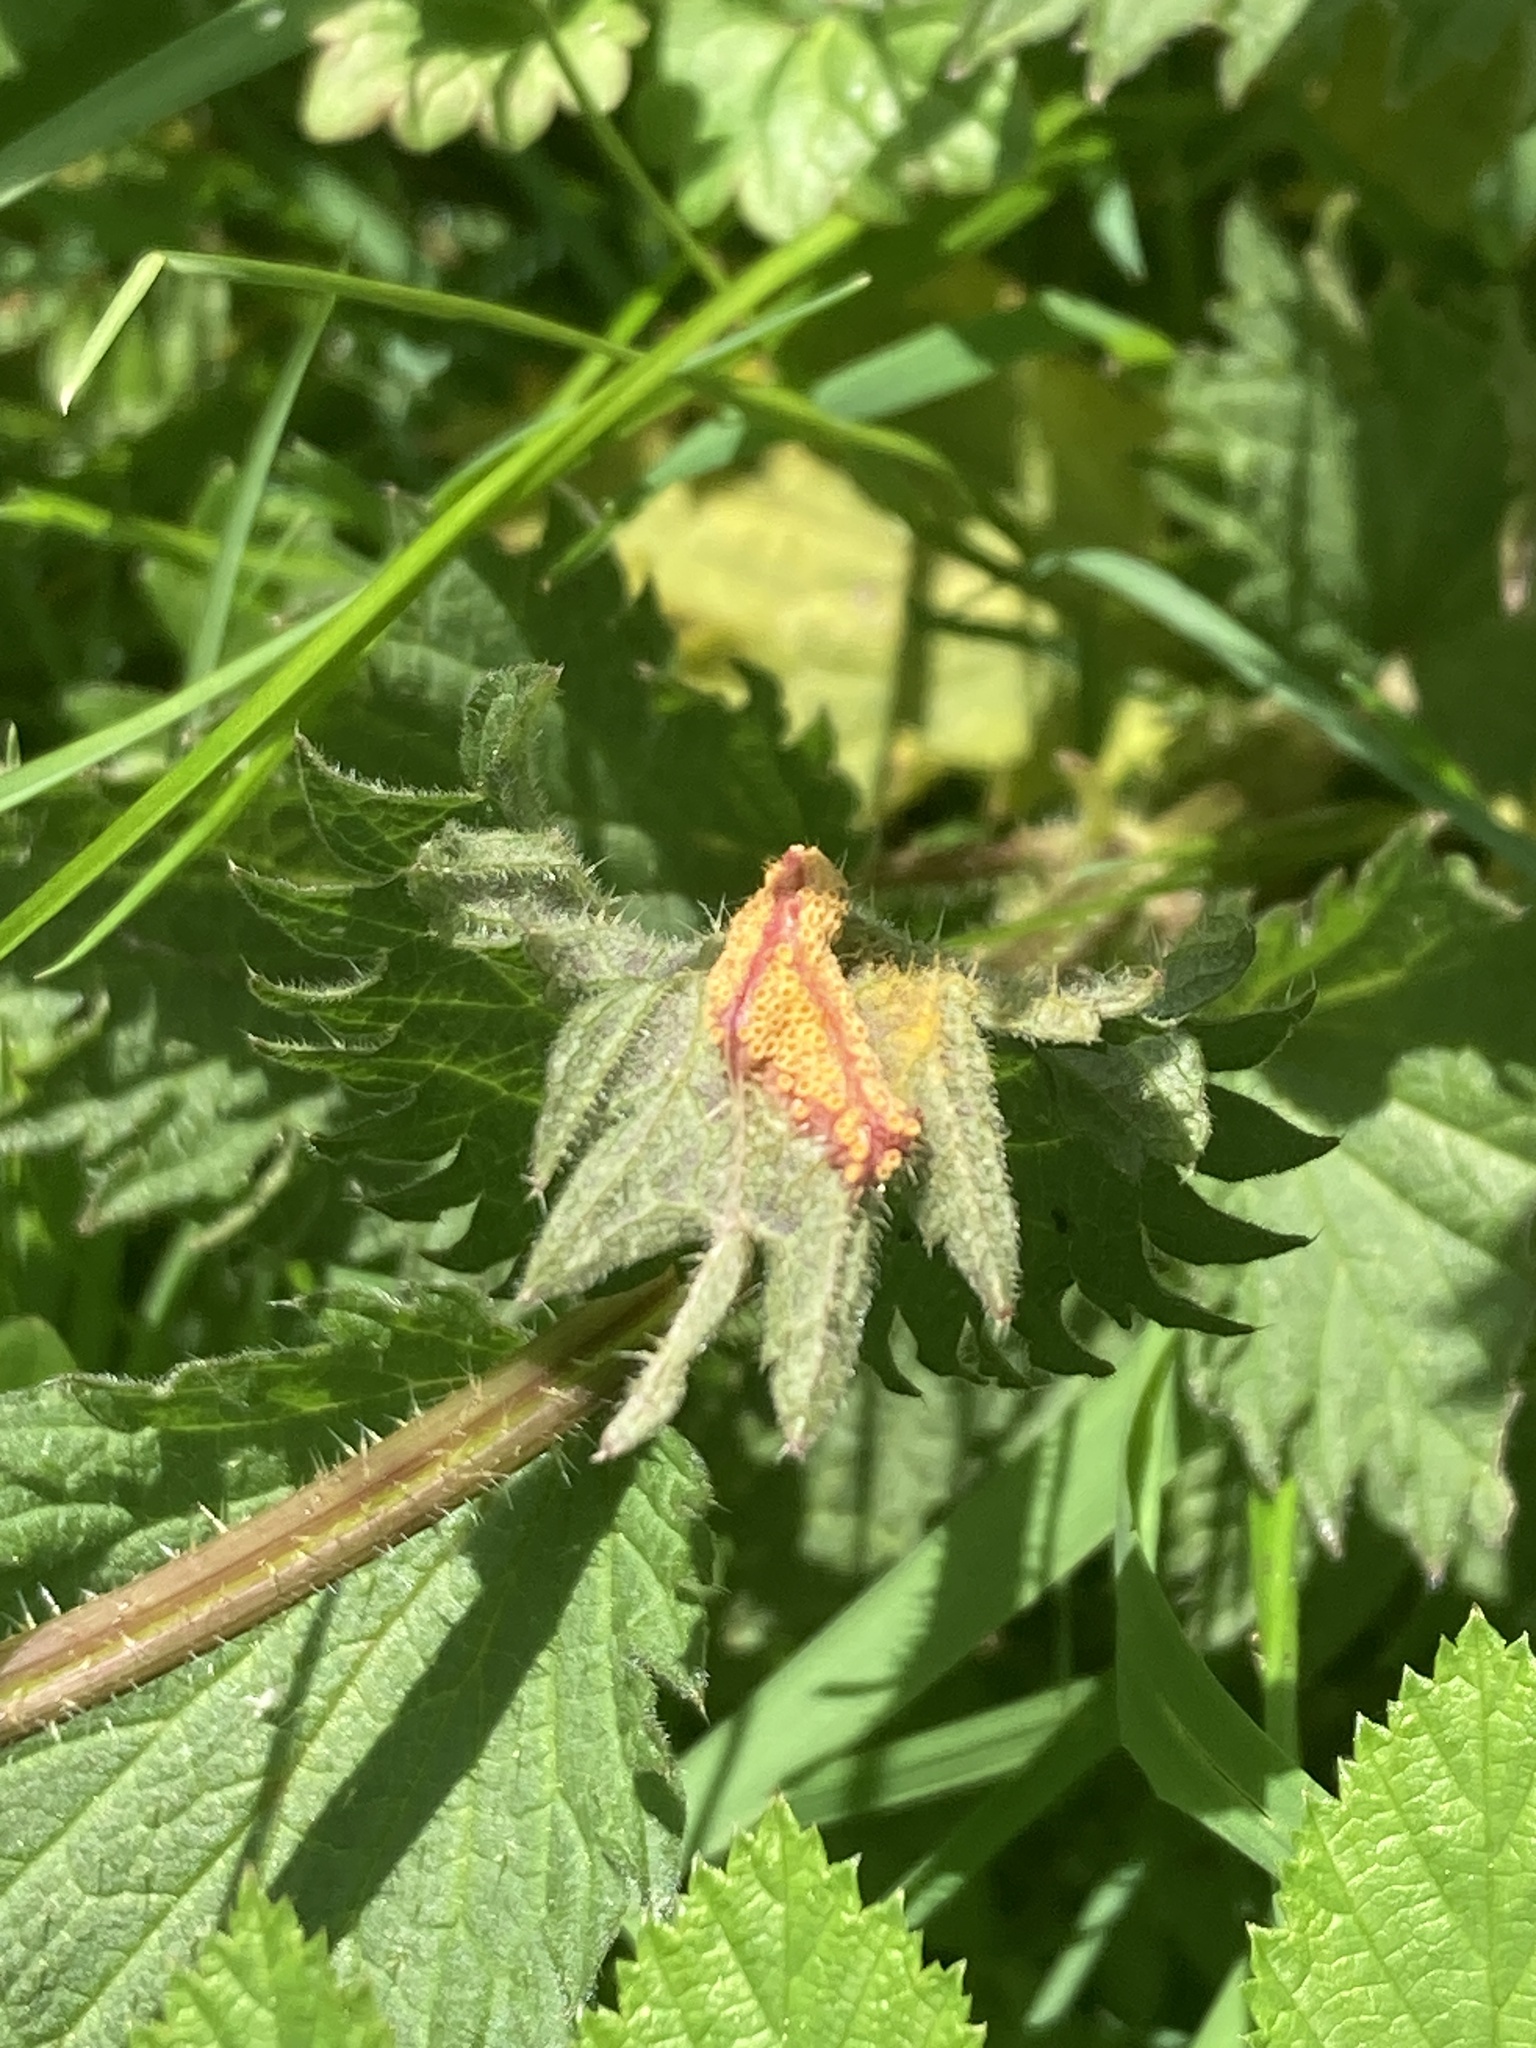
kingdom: Fungi
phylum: Basidiomycota
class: Pucciniomycetes
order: Pucciniales
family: Pucciniaceae
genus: Puccinia
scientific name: Puccinia urticata
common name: Nettle clustercup rust fungus
